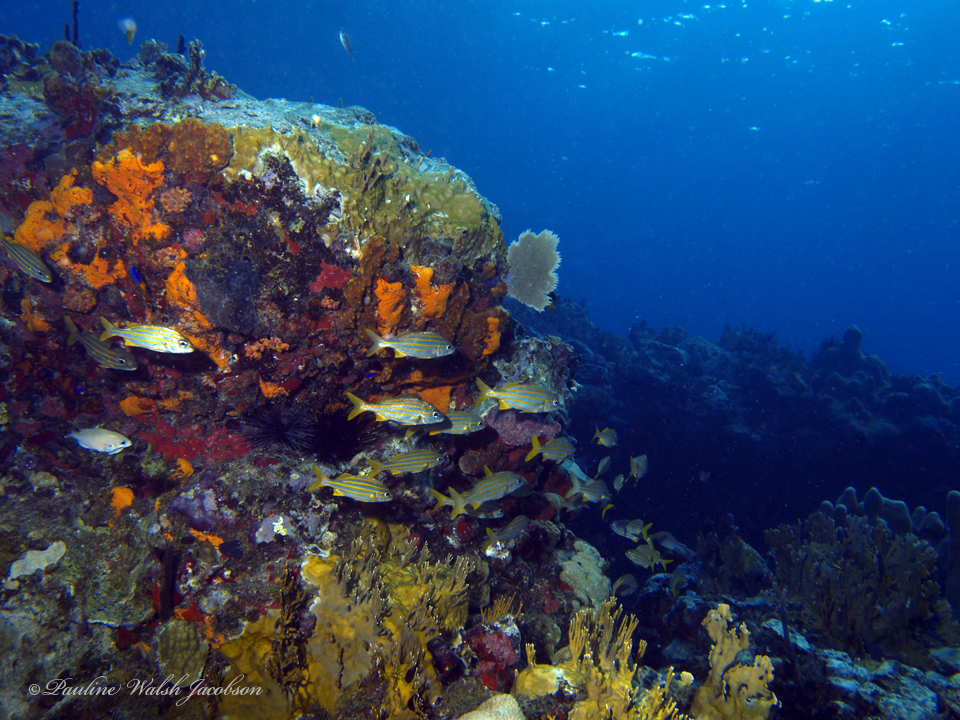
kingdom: Animalia
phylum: Chordata
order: Perciformes
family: Haemulidae
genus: Haemulon
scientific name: Haemulon chrysargyreum
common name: Smallmouth grunt
